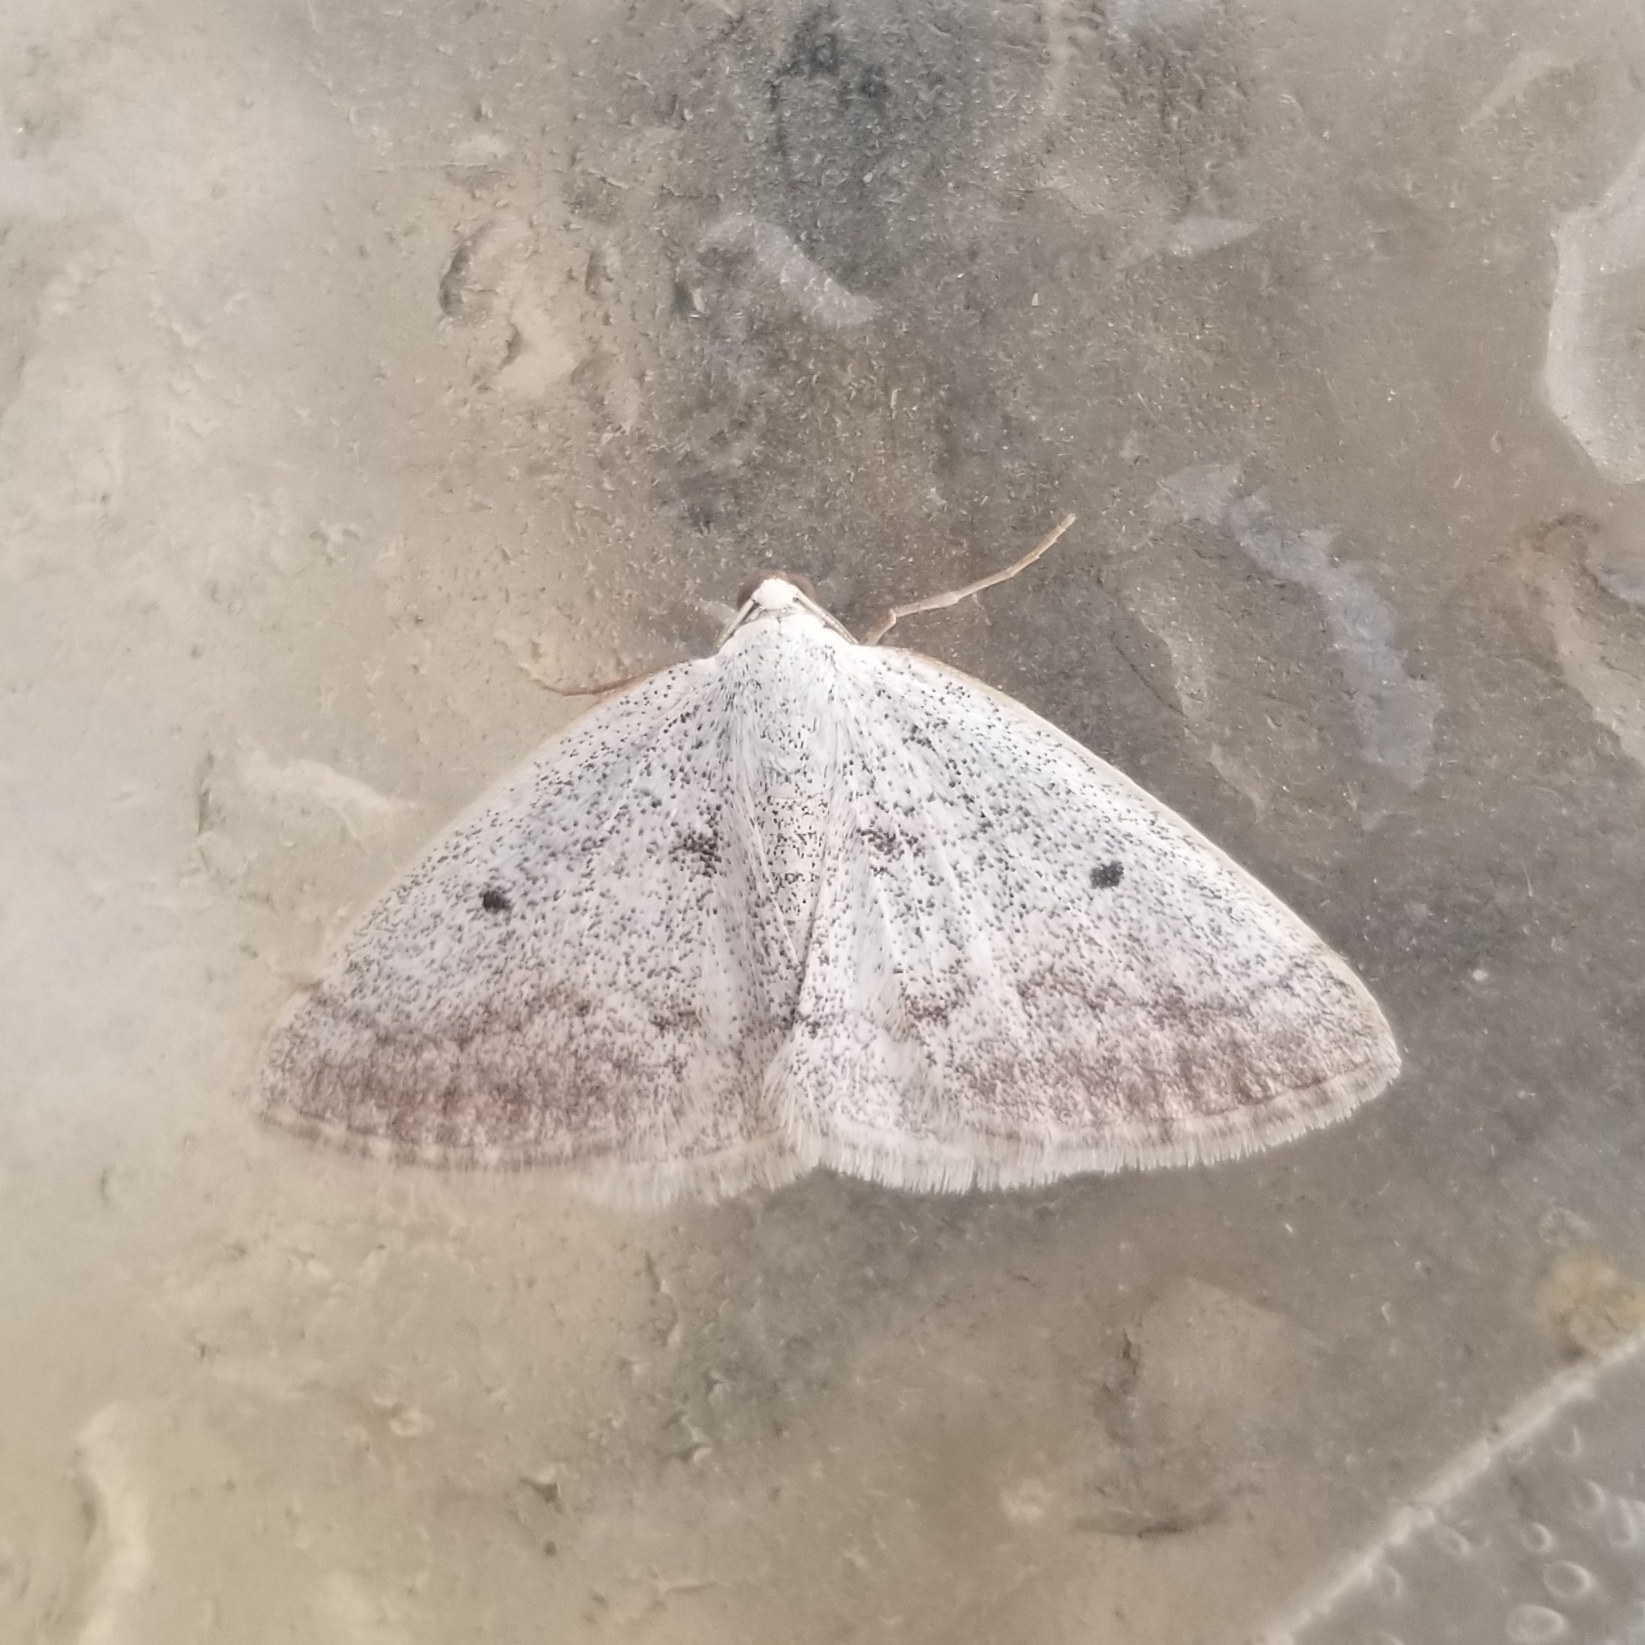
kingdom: Animalia
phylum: Arthropoda
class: Insecta
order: Lepidoptera
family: Geometridae
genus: Lomographa
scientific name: Lomographa glomeraria
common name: Gray spring moth
